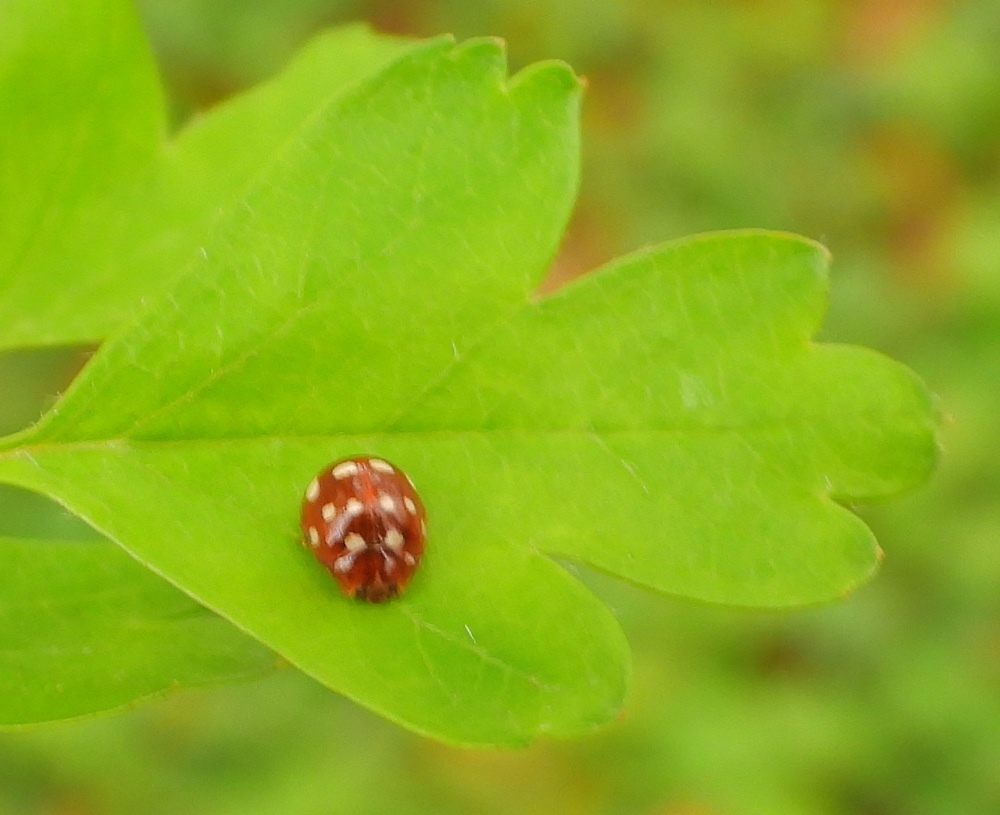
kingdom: Animalia
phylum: Arthropoda
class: Insecta
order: Coleoptera
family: Coccinellidae
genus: Calvia
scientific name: Calvia quatuordecimguttata
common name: Cream-spot ladybird
